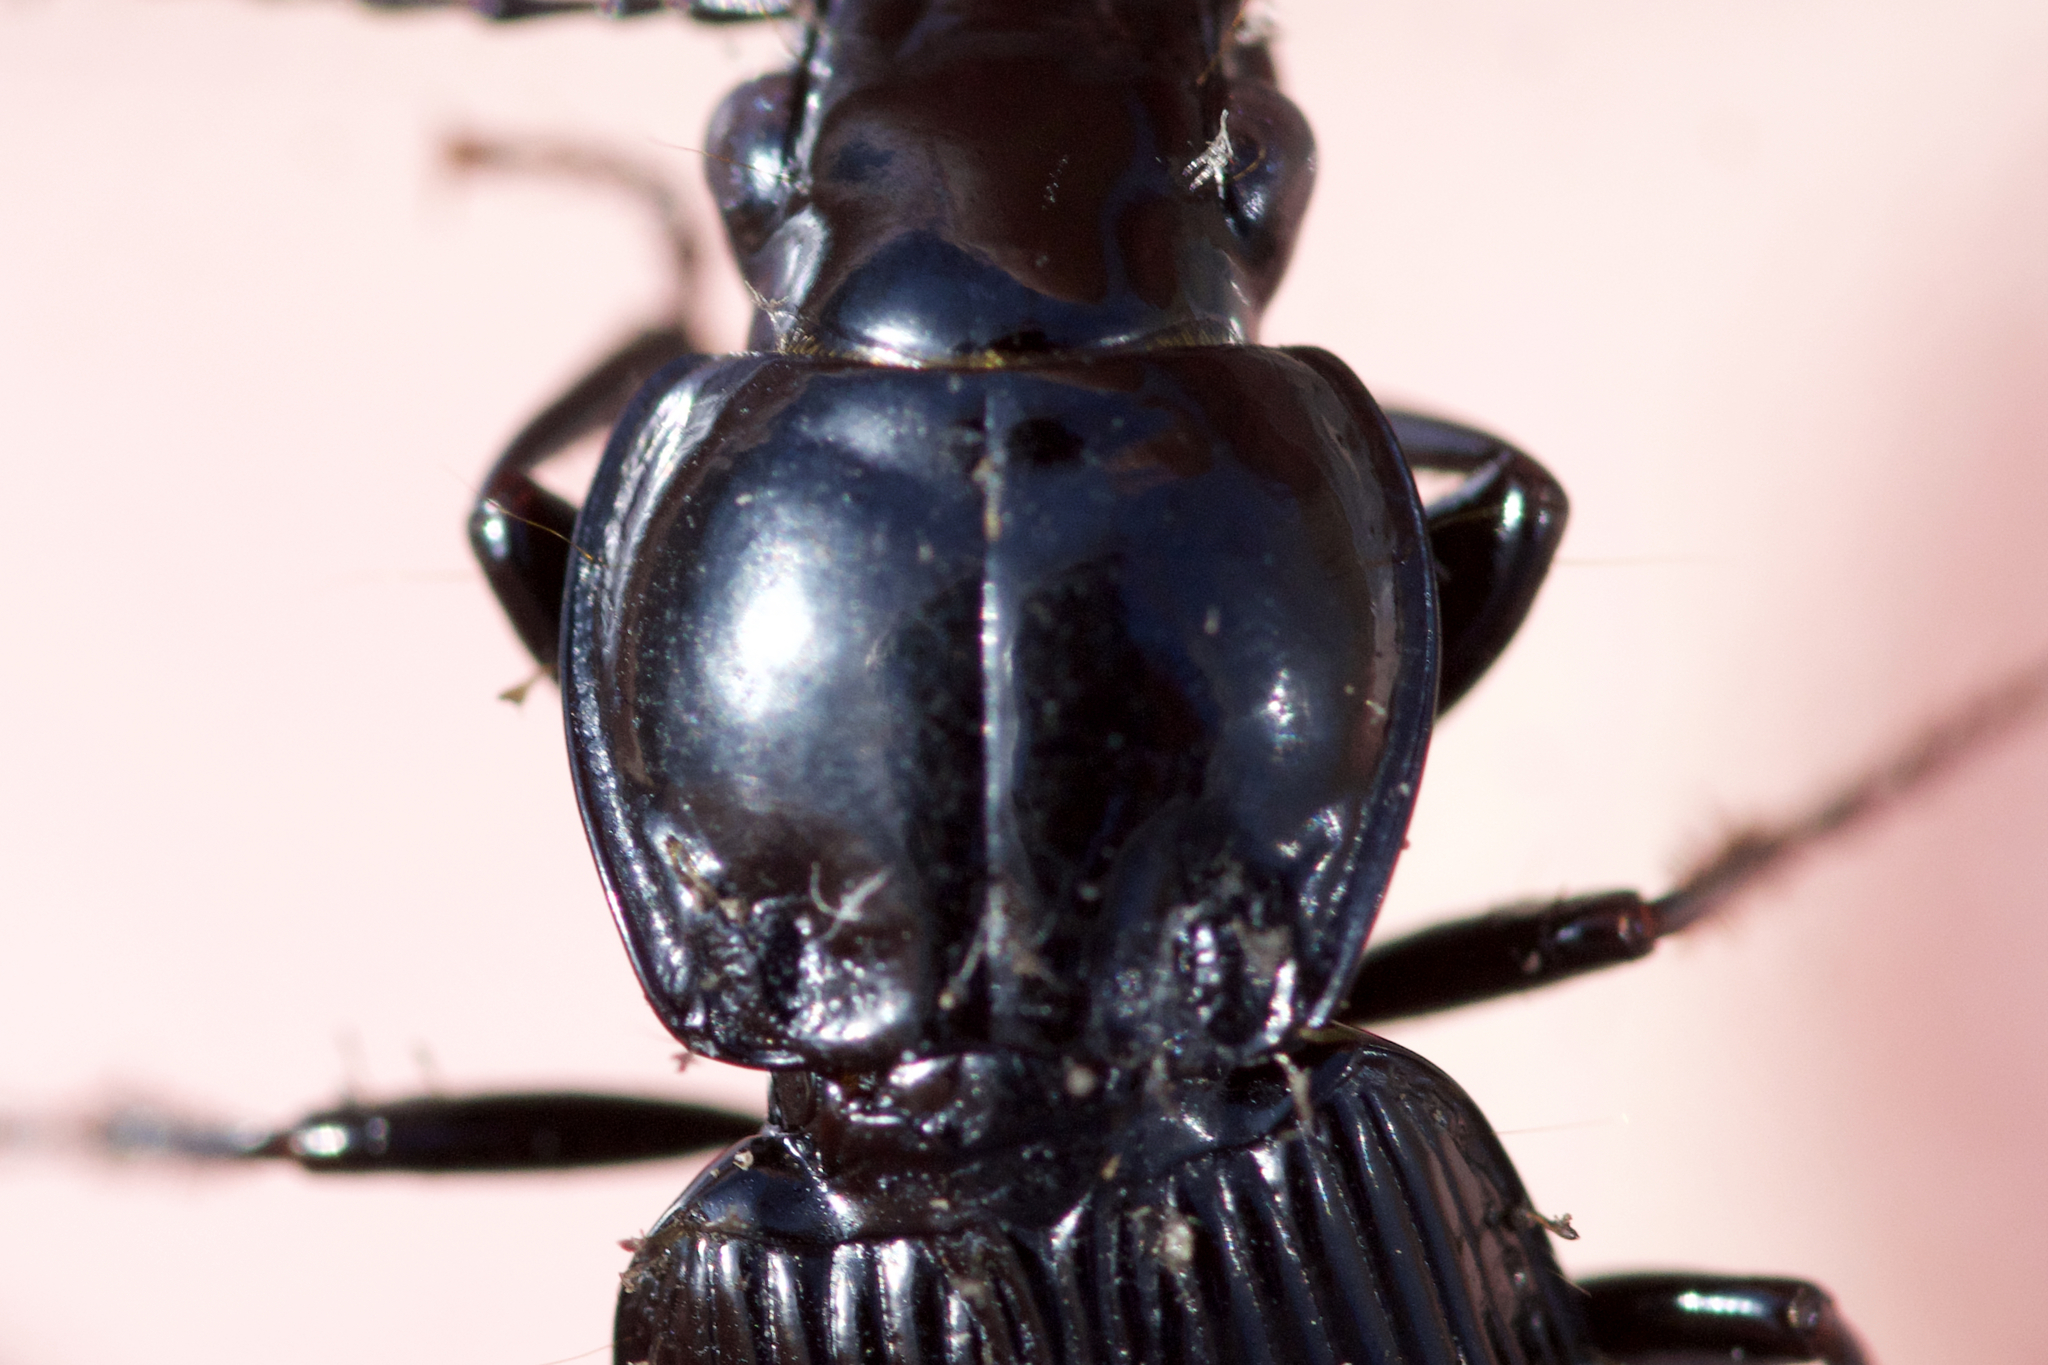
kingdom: Animalia
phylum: Arthropoda
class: Insecta
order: Coleoptera
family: Carabidae
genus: Pterostichus
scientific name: Pterostichus stygicus
